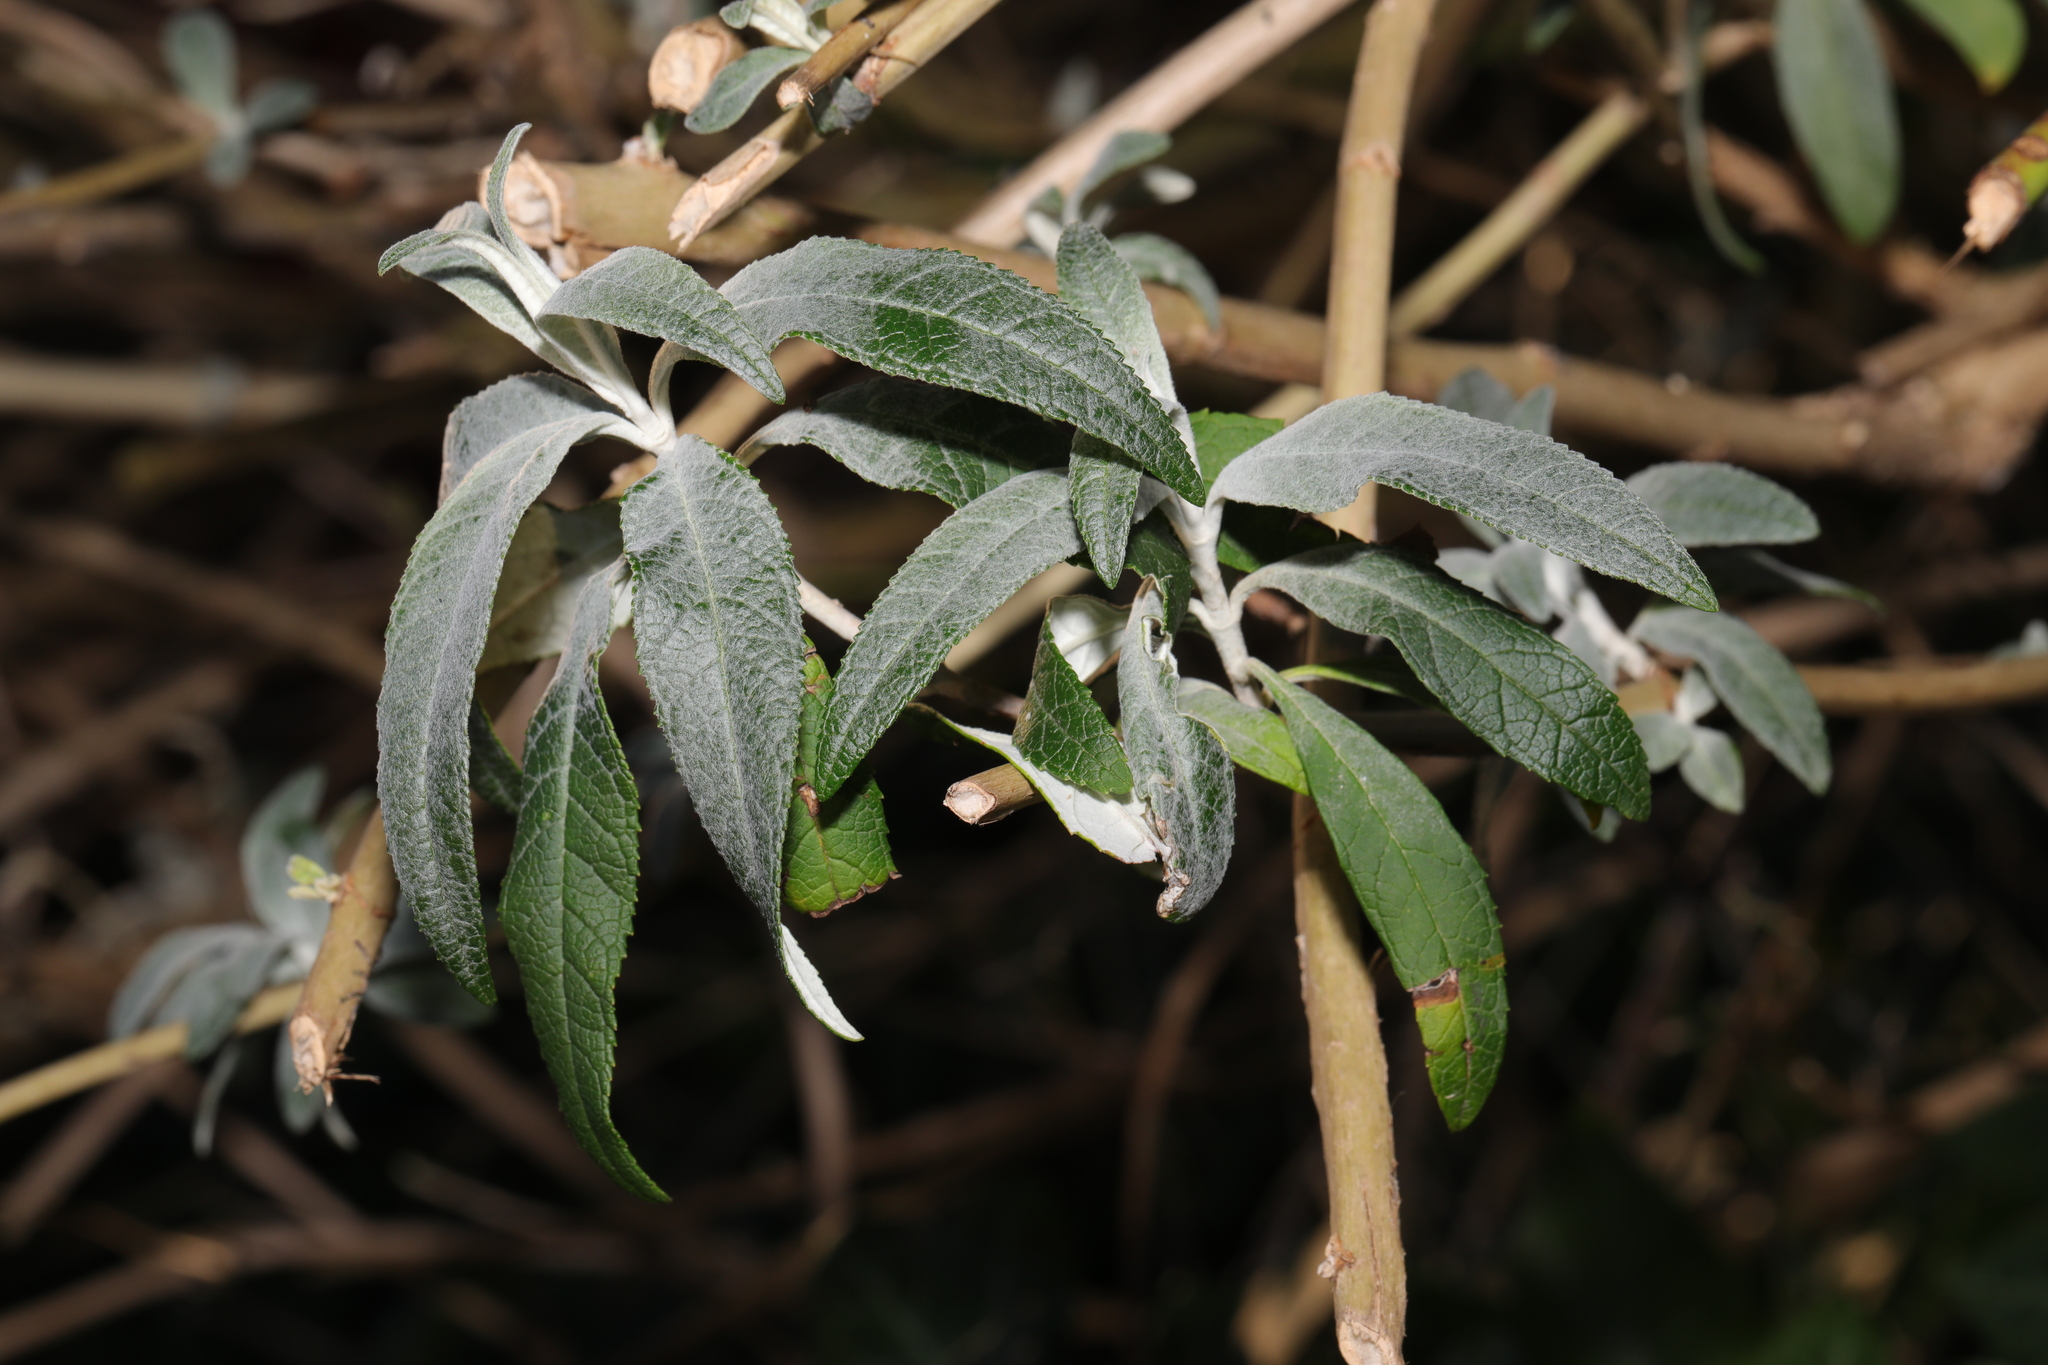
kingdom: Plantae
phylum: Tracheophyta
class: Magnoliopsida
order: Lamiales
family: Scrophulariaceae
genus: Buddleja
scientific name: Buddleja davidii
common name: Butterfly-bush
